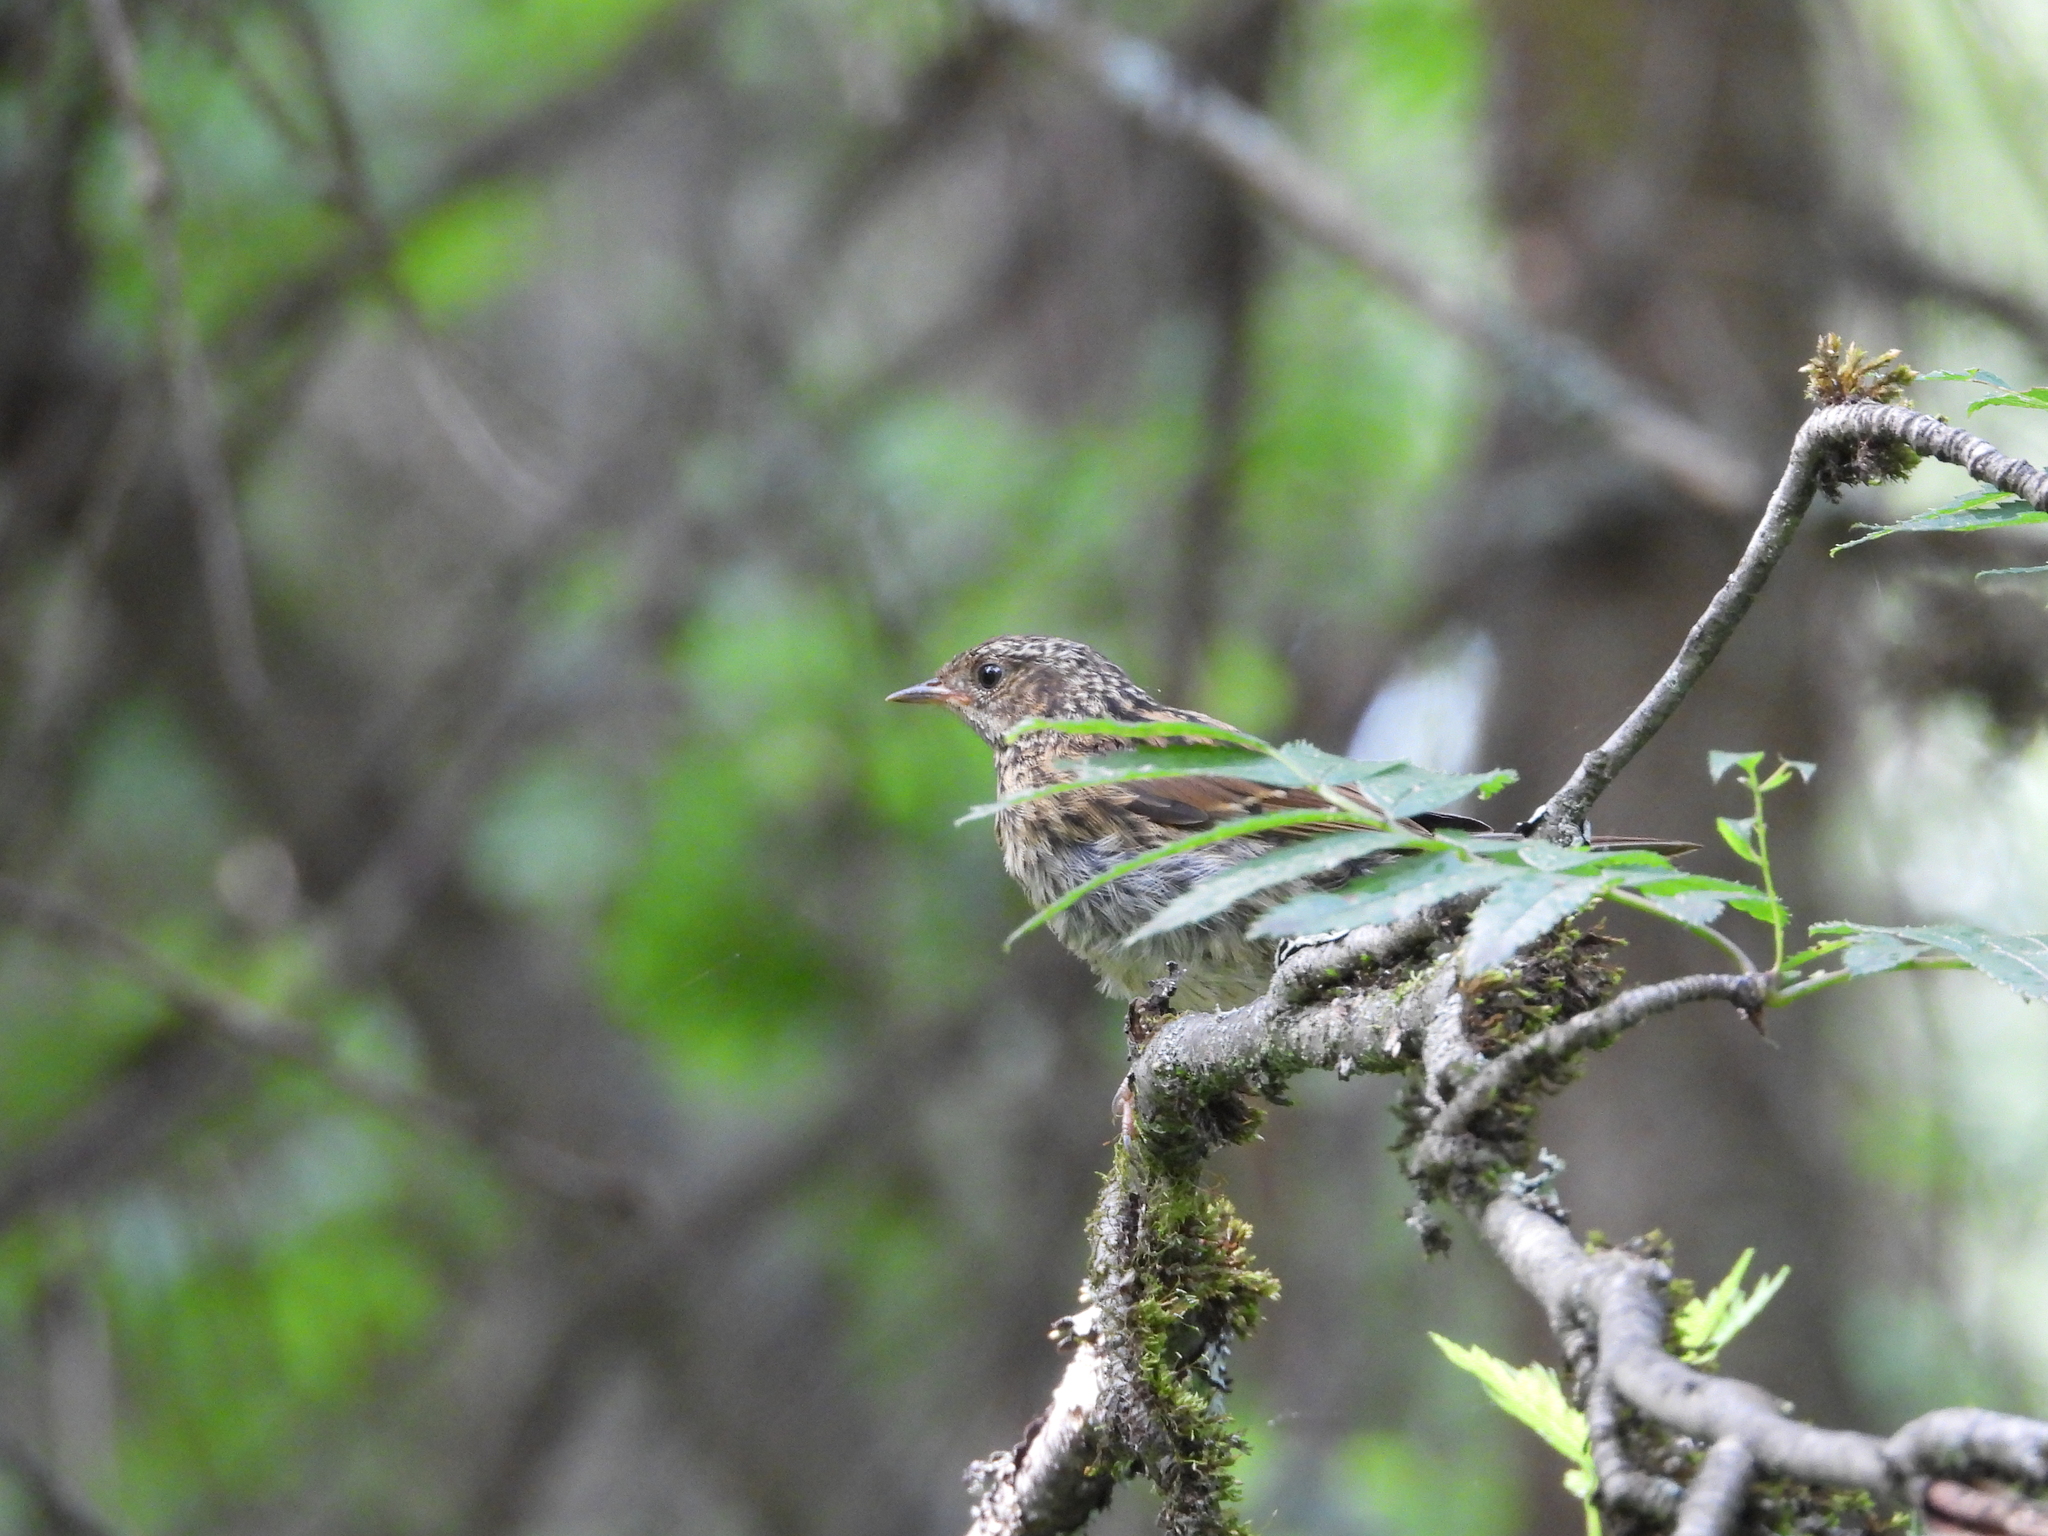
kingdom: Animalia
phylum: Chordata
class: Aves
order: Passeriformes
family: Prunellidae
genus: Prunella
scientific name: Prunella modularis
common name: Dunnock
